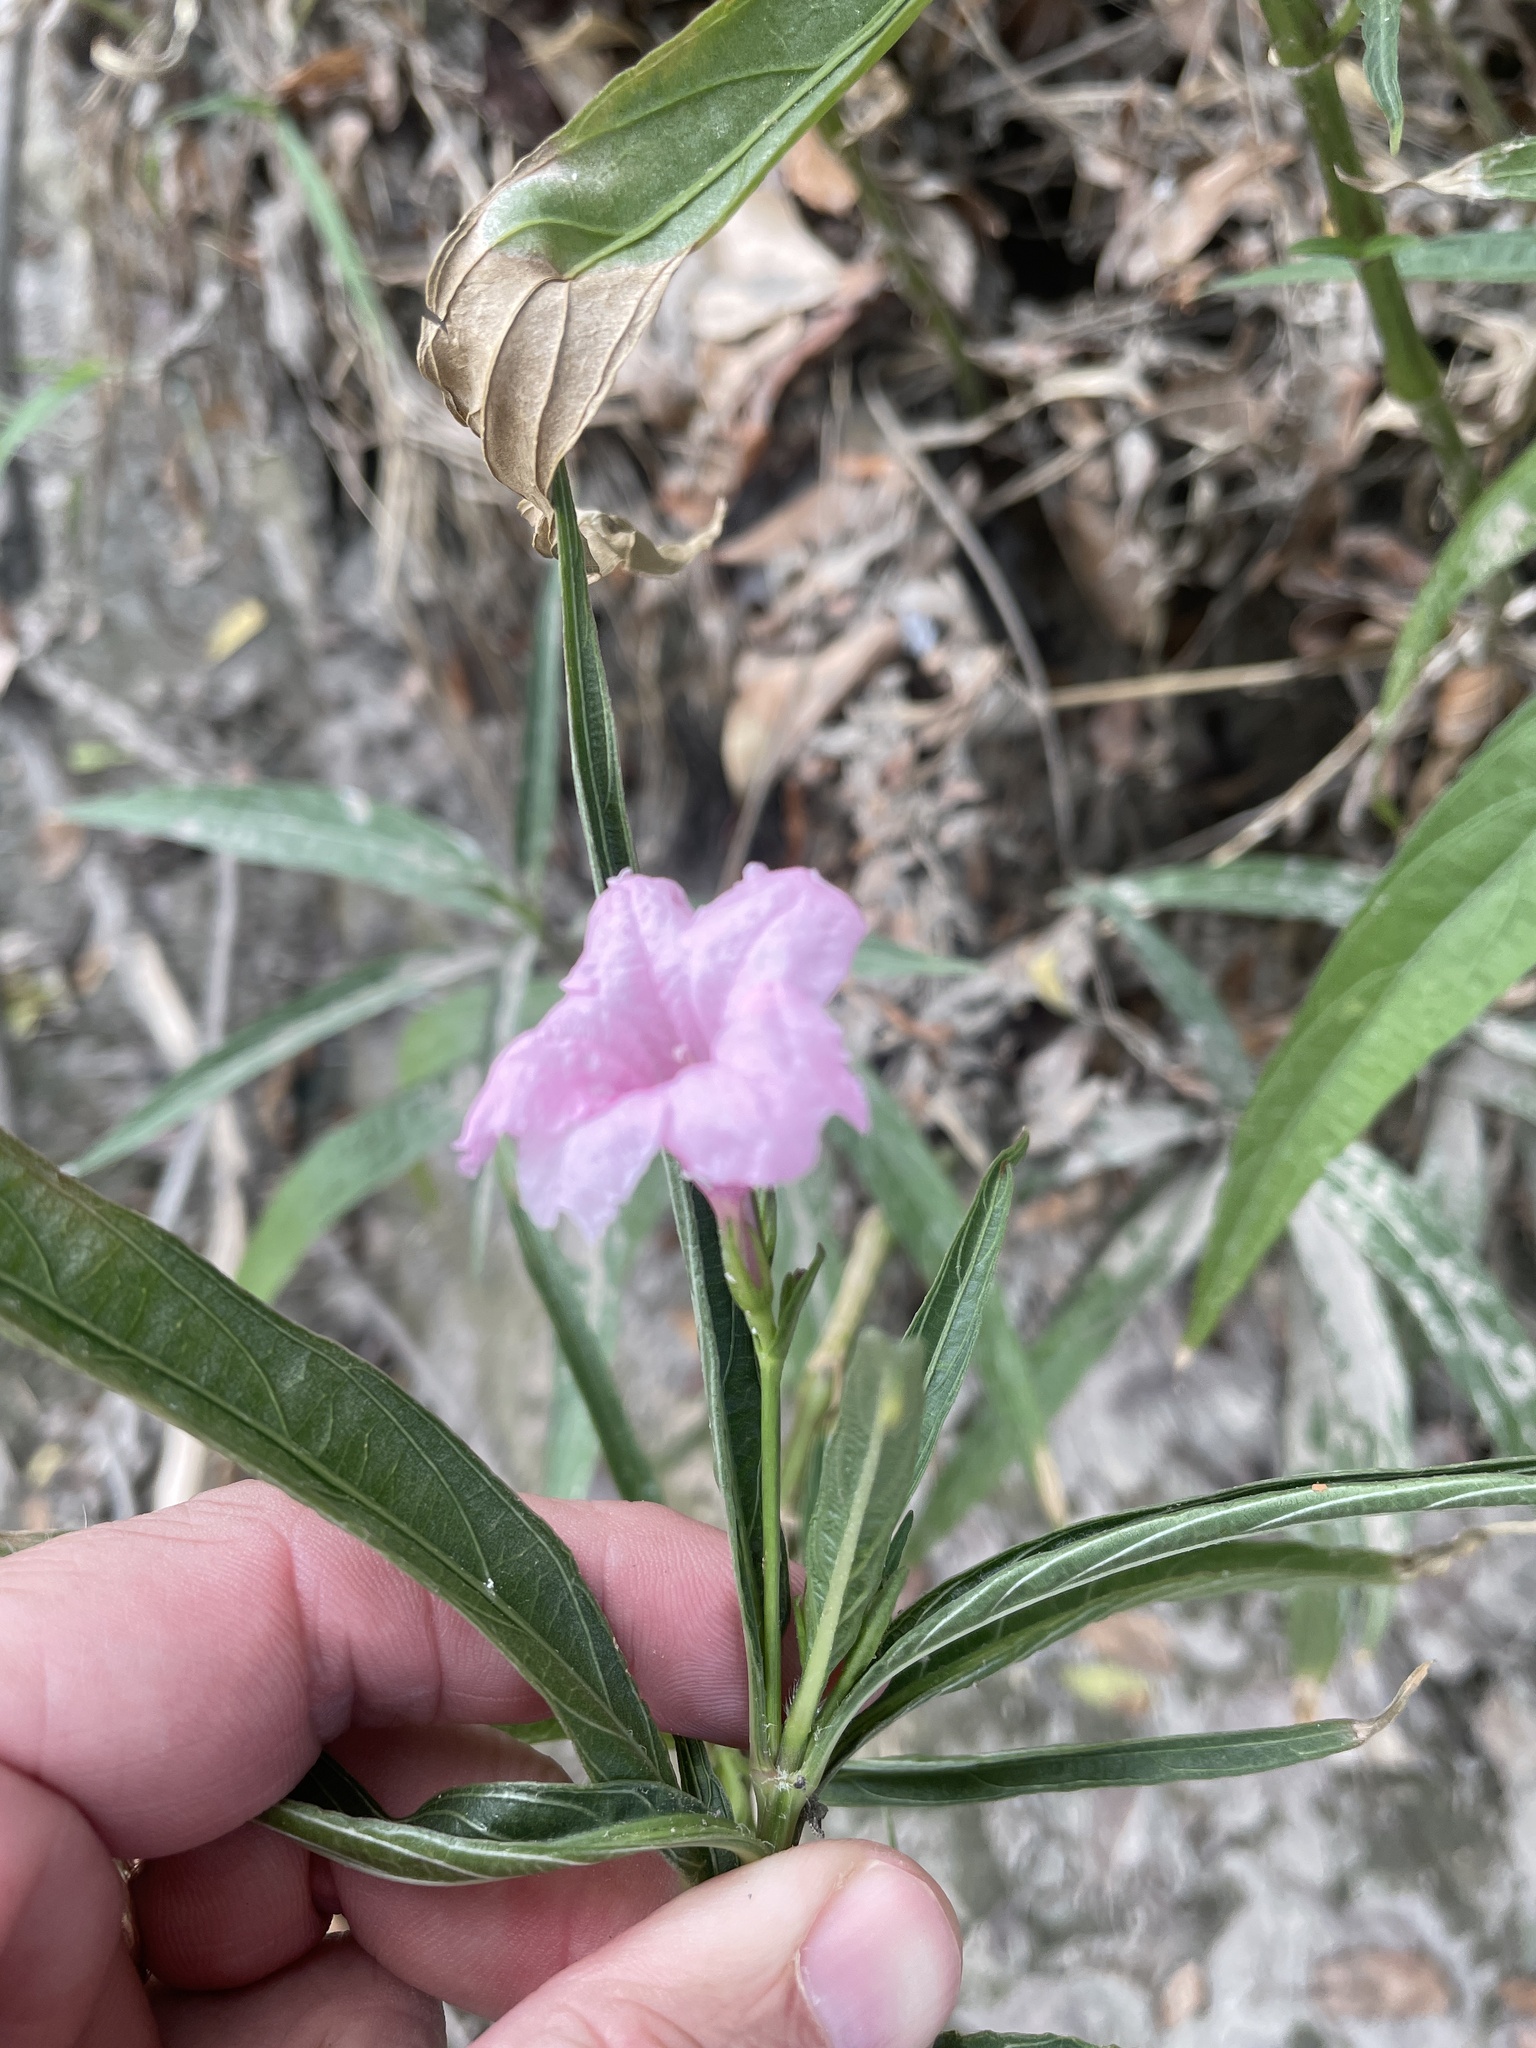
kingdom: Plantae
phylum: Tracheophyta
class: Magnoliopsida
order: Lamiales
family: Acanthaceae
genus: Ruellia
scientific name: Ruellia simplex
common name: Softseed wild petunia
